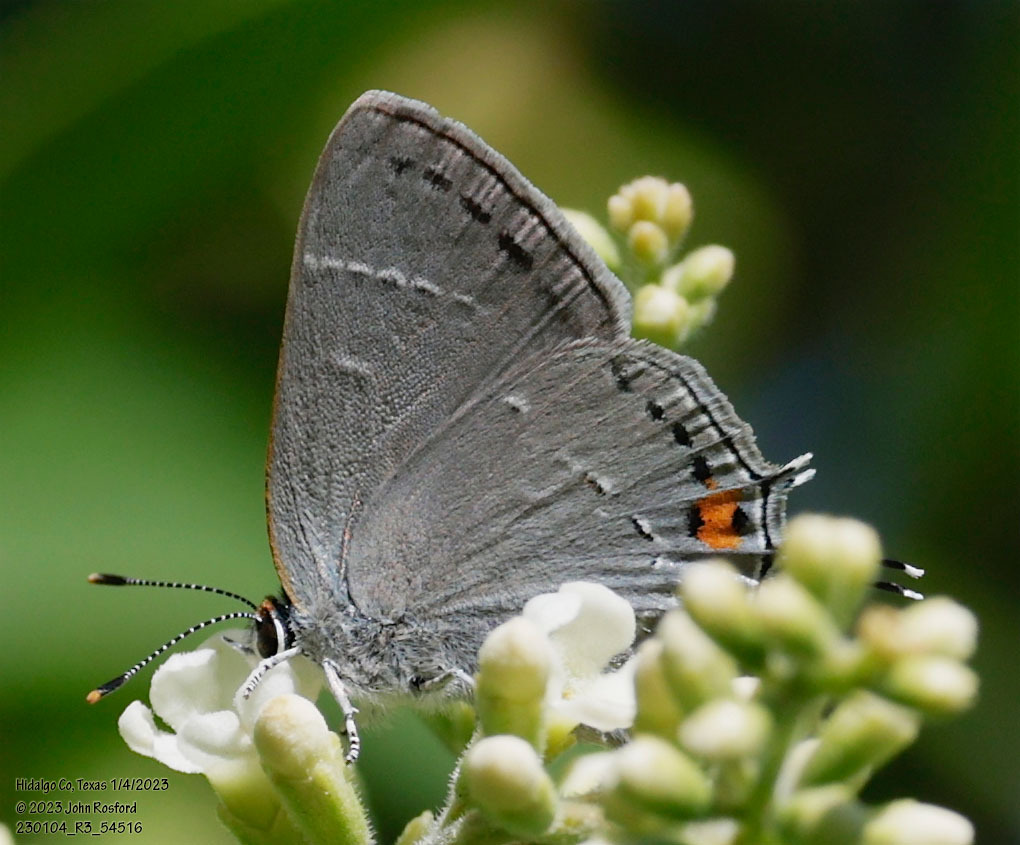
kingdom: Animalia
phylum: Arthropoda
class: Insecta
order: Lepidoptera
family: Lycaenidae
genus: Strymon
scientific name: Strymon melinus
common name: Gray hairstreak
